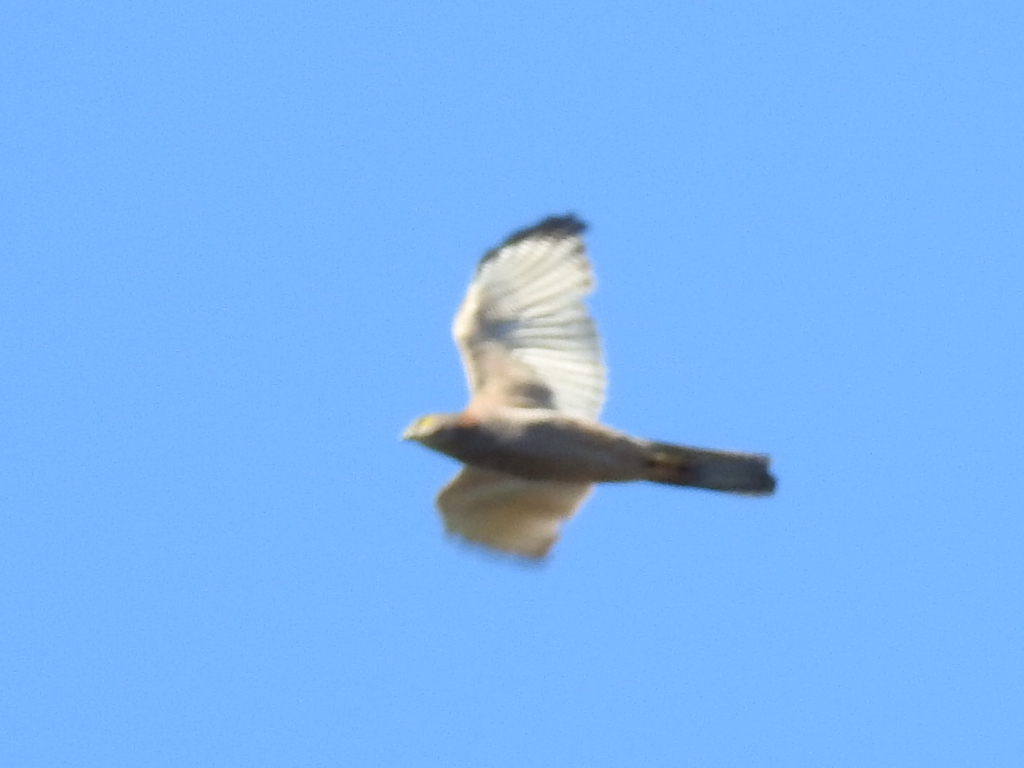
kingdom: Animalia
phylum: Chordata
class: Aves
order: Accipitriformes
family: Accipitridae
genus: Accipiter
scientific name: Accipiter cirrocephalus
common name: Collared sparrowhawk
